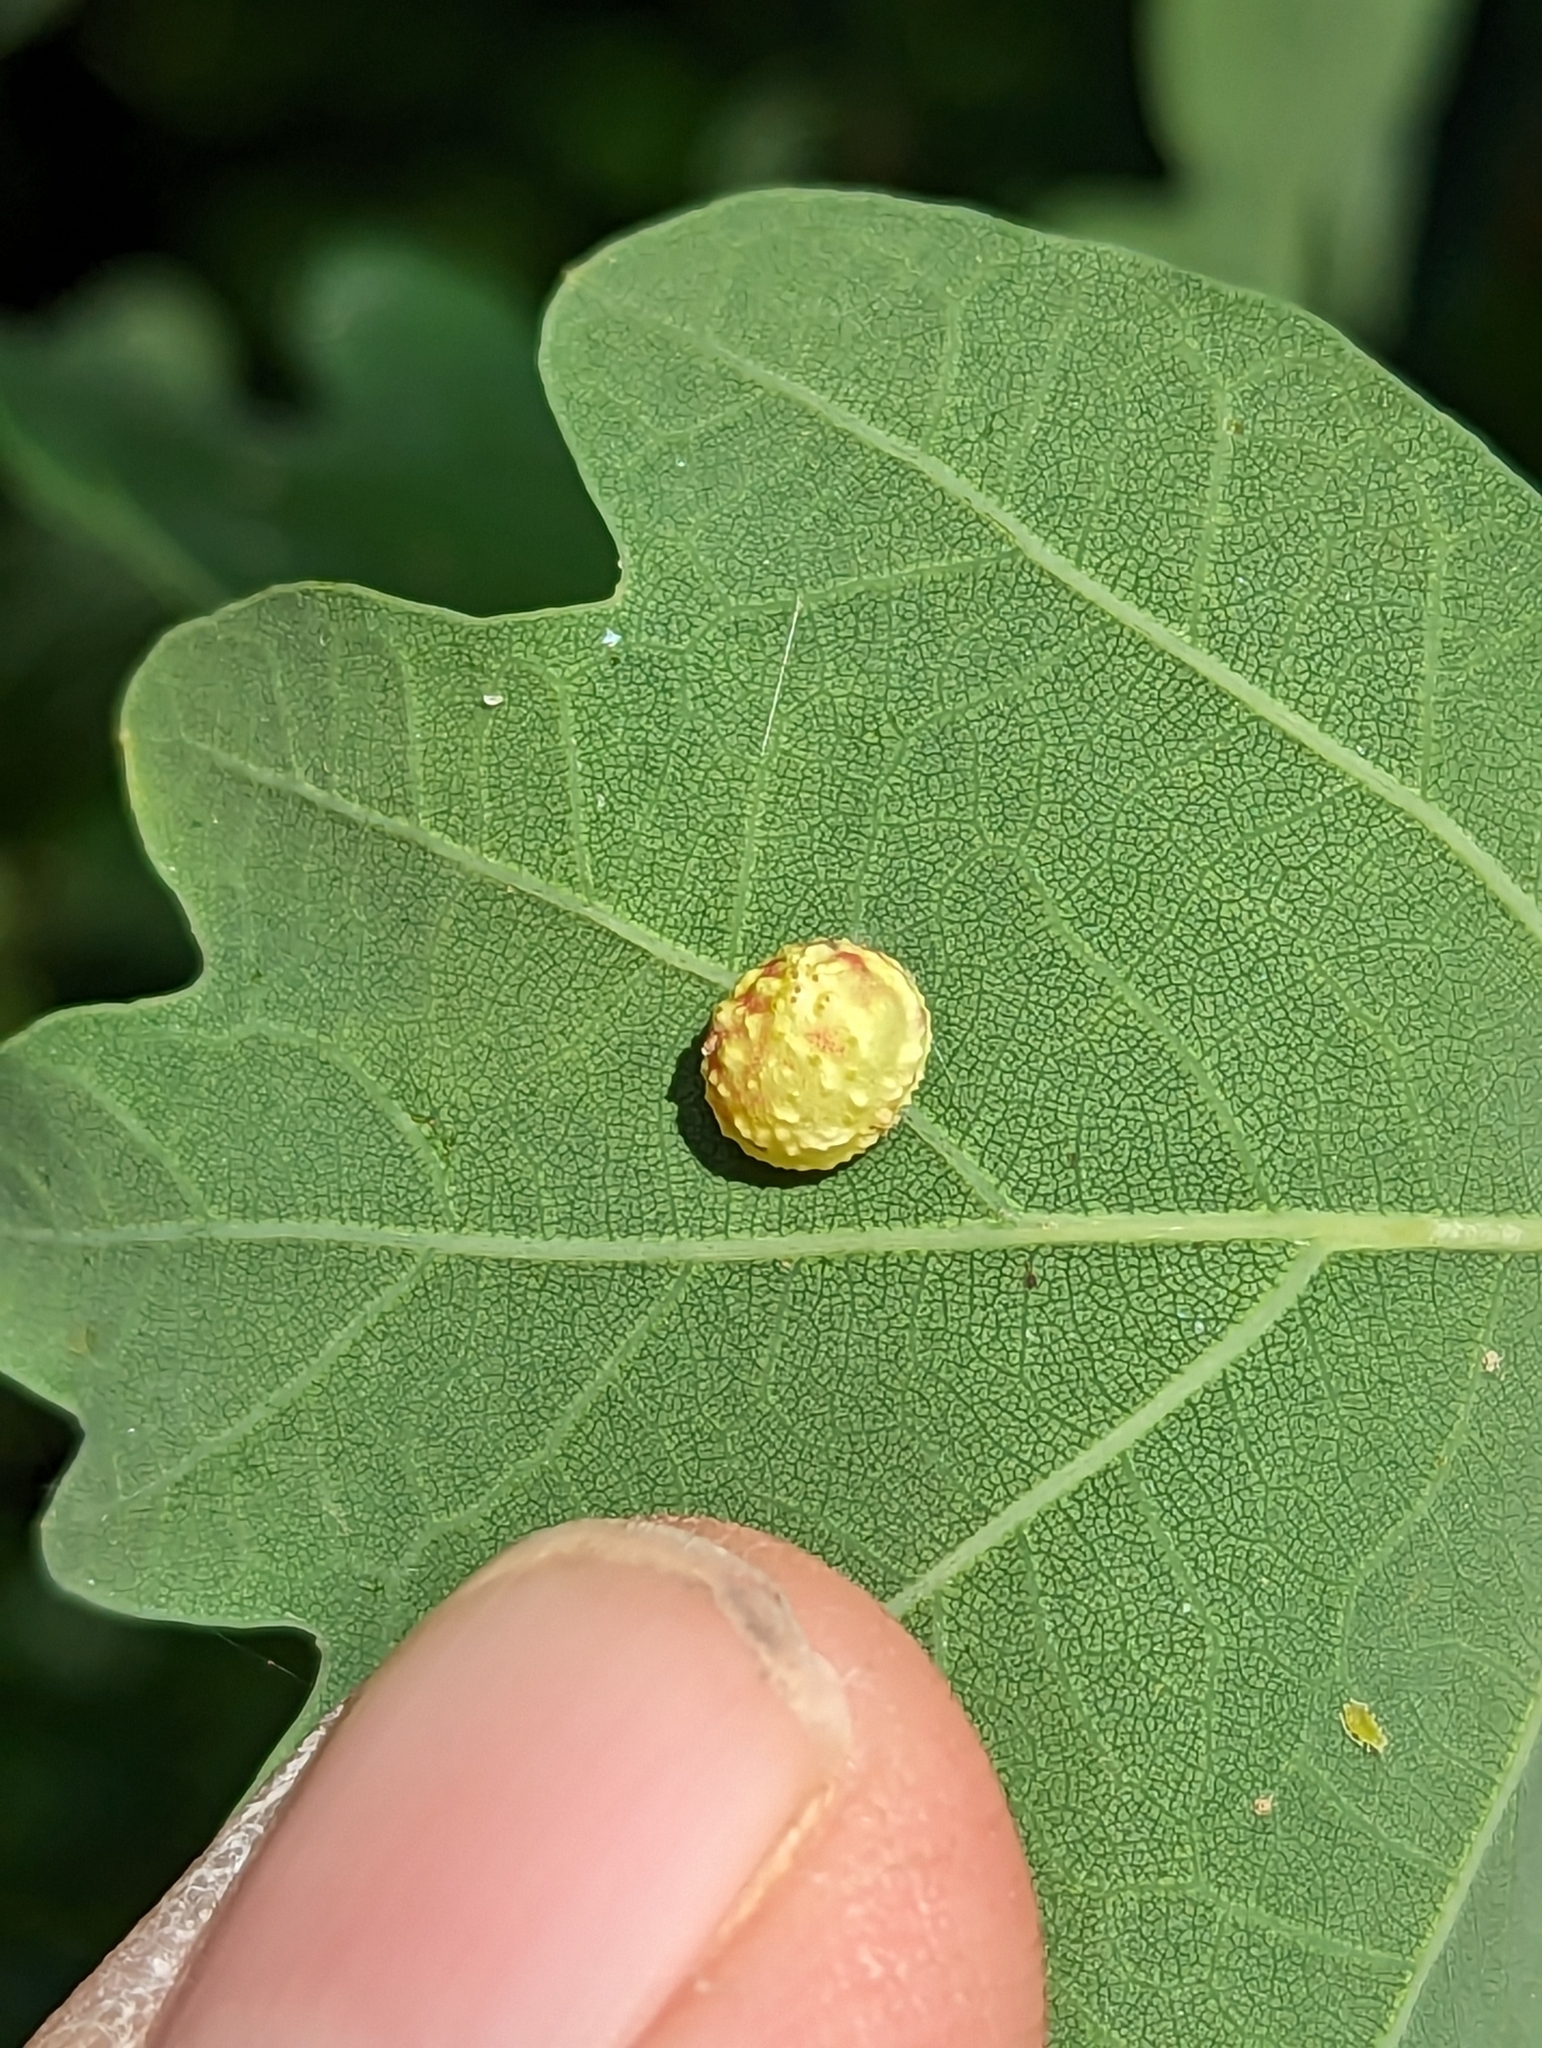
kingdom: Animalia
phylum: Arthropoda
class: Insecta
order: Hymenoptera
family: Cynipidae
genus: Cynips
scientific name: Cynips longiventris
